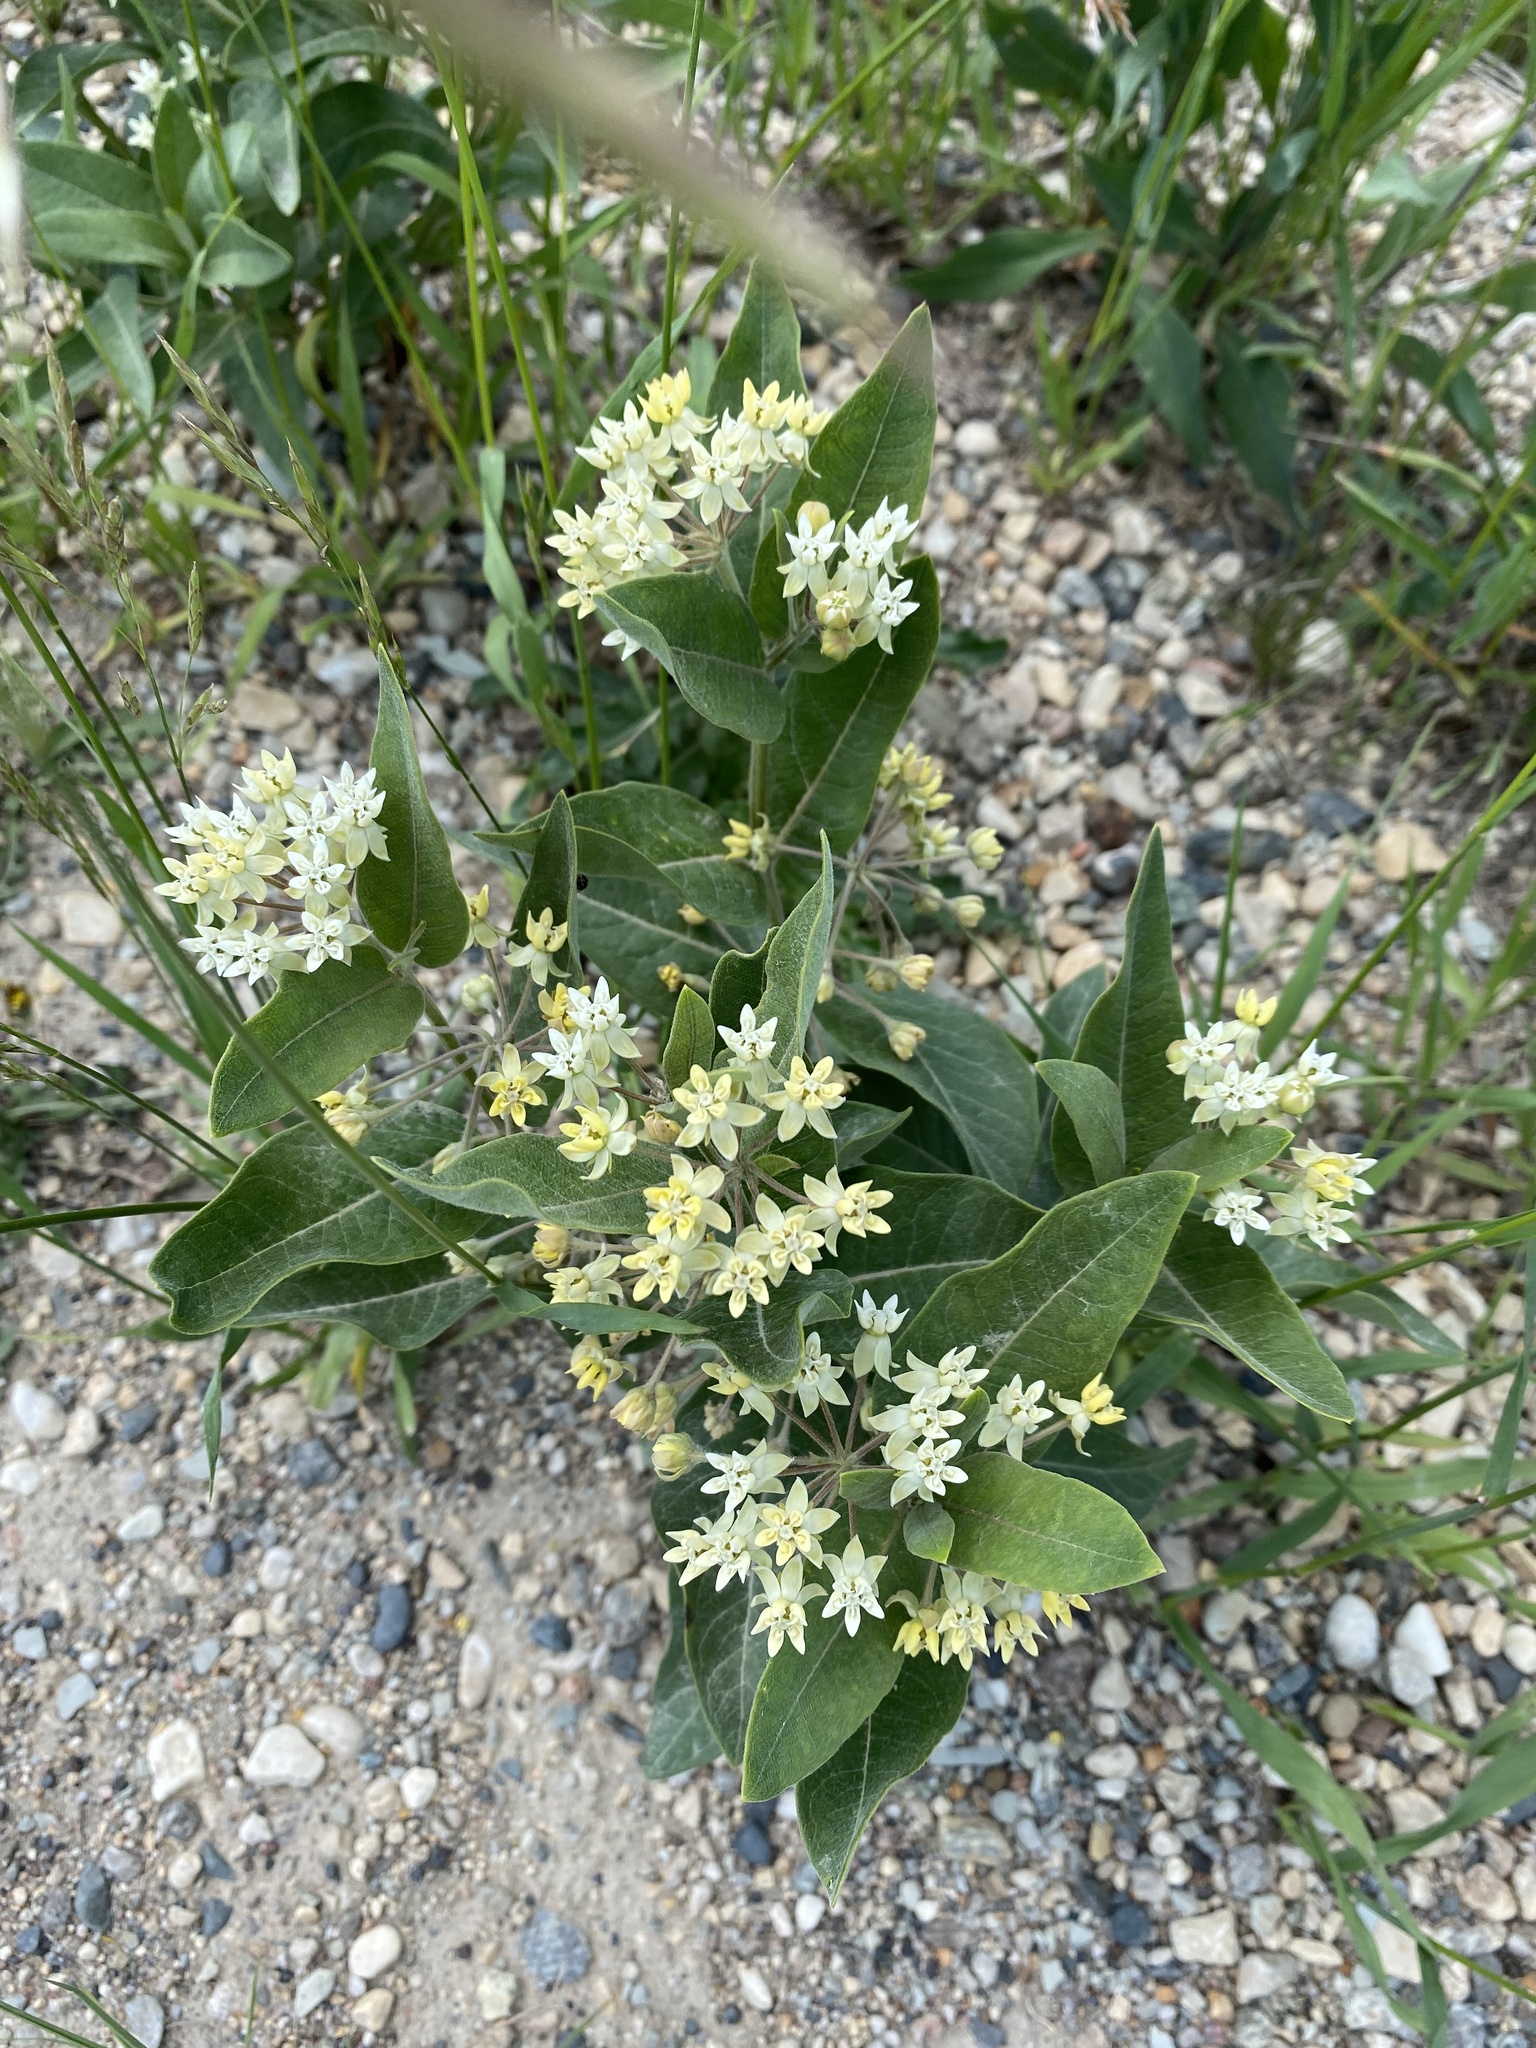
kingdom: Plantae
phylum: Tracheophyta
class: Magnoliopsida
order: Gentianales
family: Apocynaceae
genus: Asclepias
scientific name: Asclepias ovalifolia
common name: Dwarf milkweed
